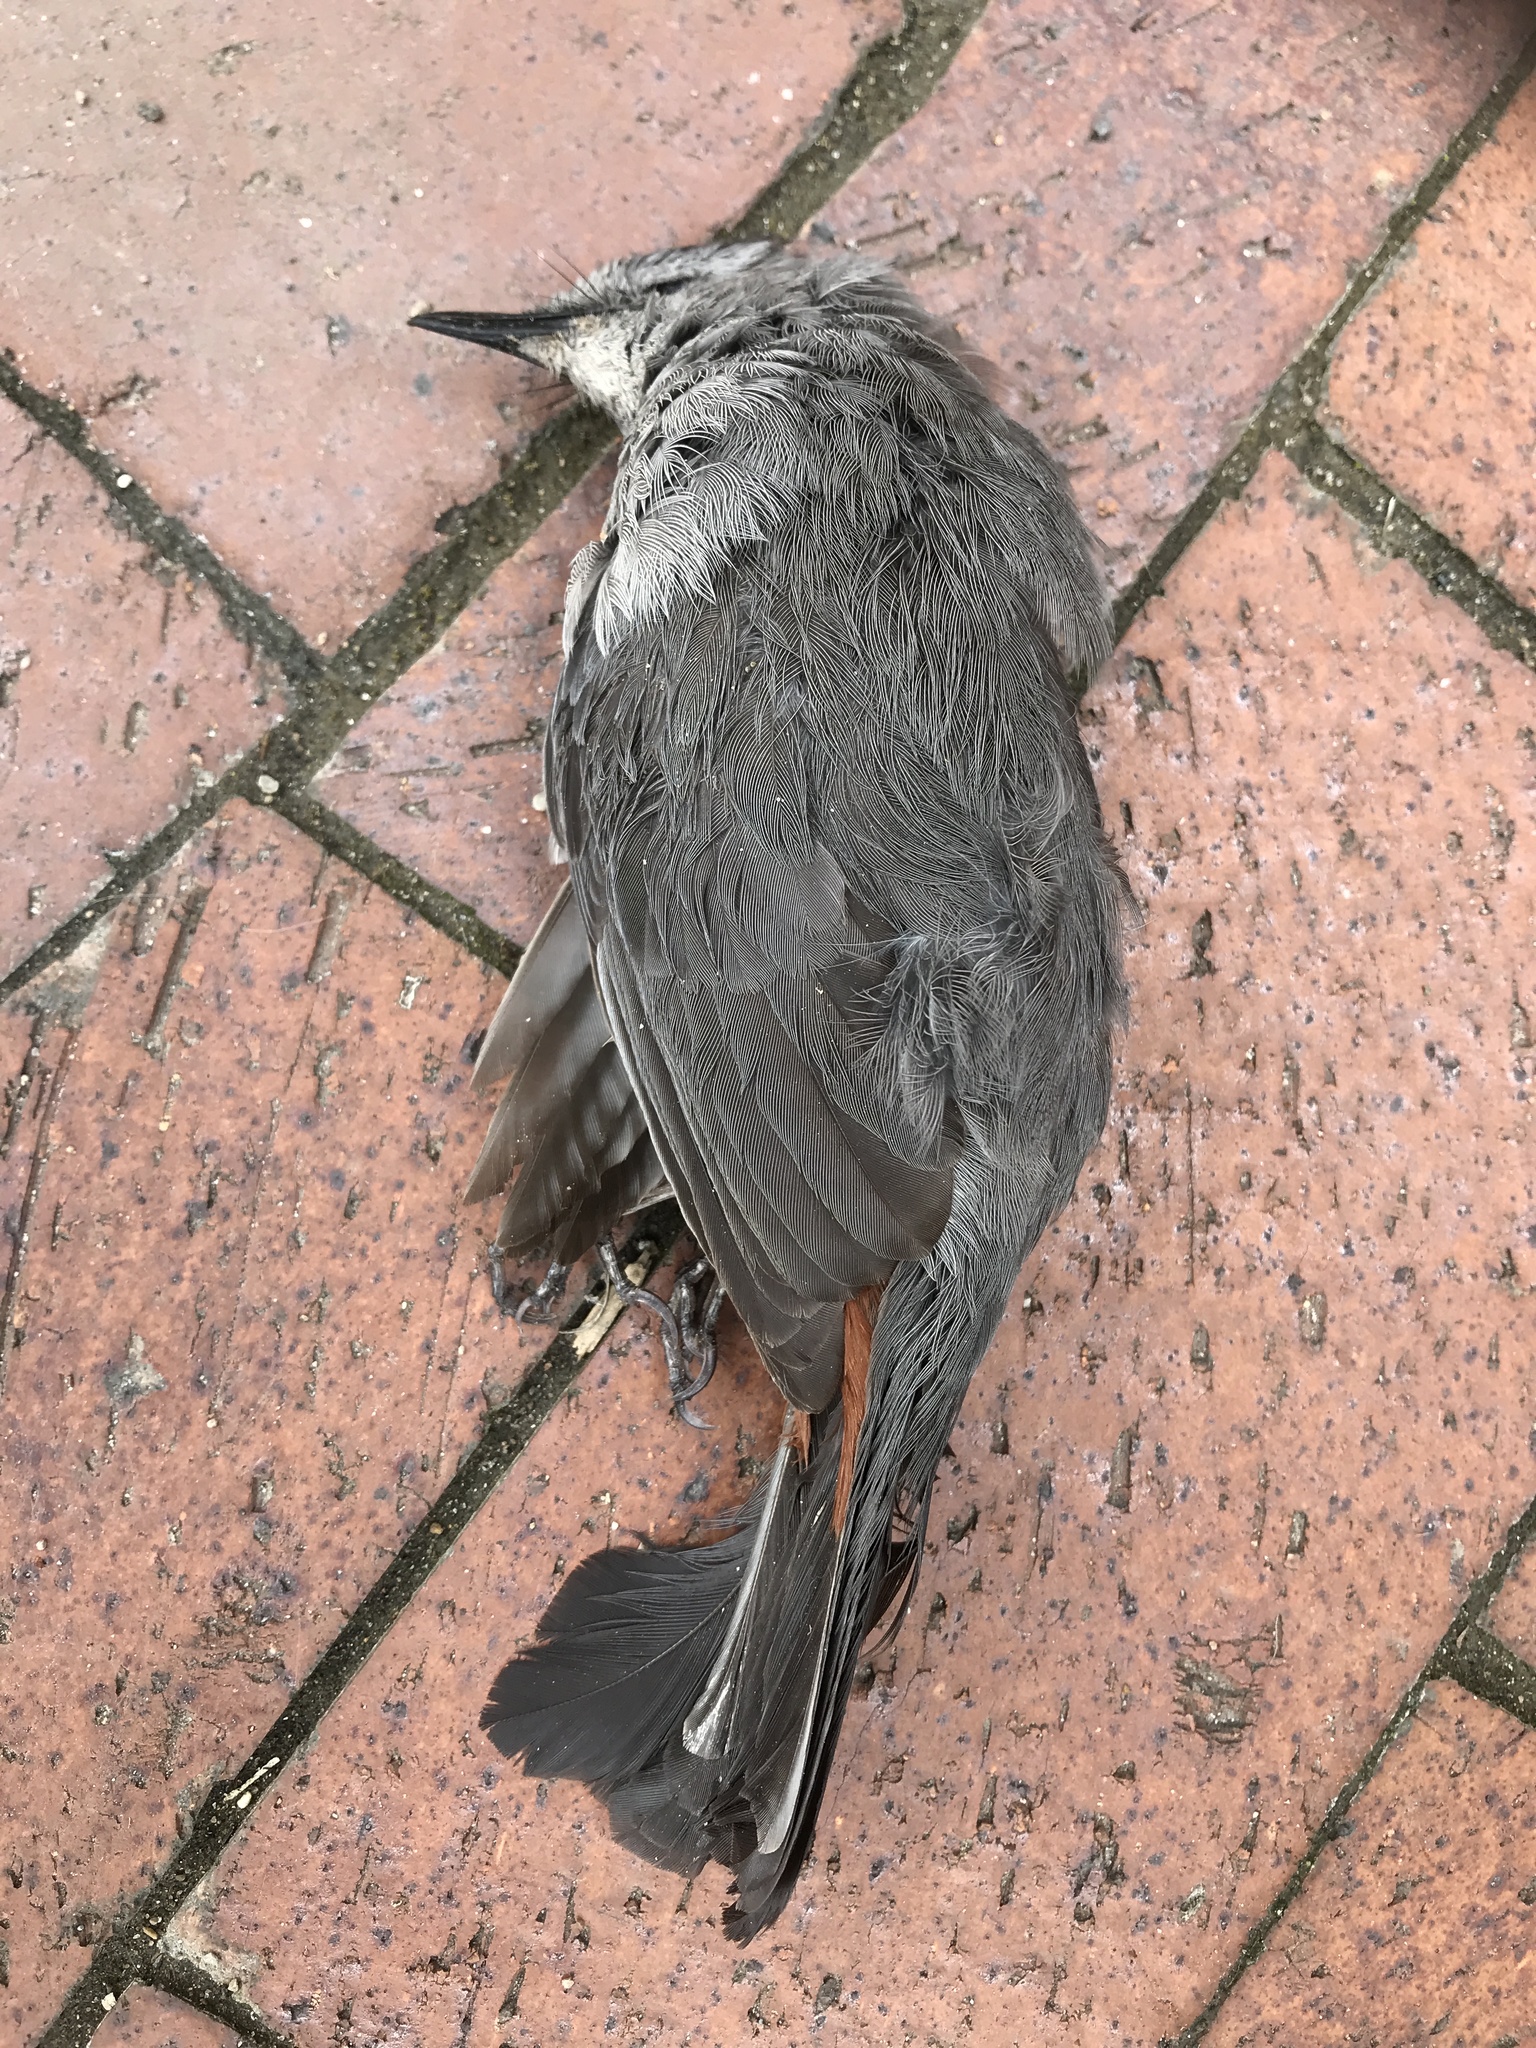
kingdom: Animalia
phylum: Chordata
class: Aves
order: Passeriformes
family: Mimidae
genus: Dumetella
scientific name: Dumetella carolinensis
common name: Gray catbird
